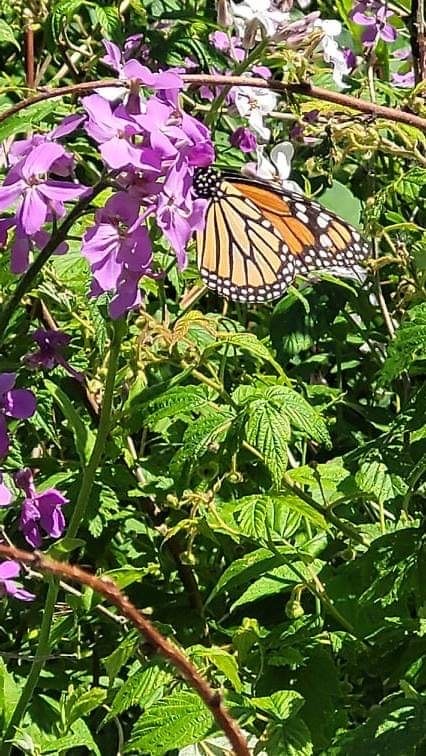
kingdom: Animalia
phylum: Arthropoda
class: Insecta
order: Lepidoptera
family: Nymphalidae
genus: Danaus
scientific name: Danaus plexippus
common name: Monarch
